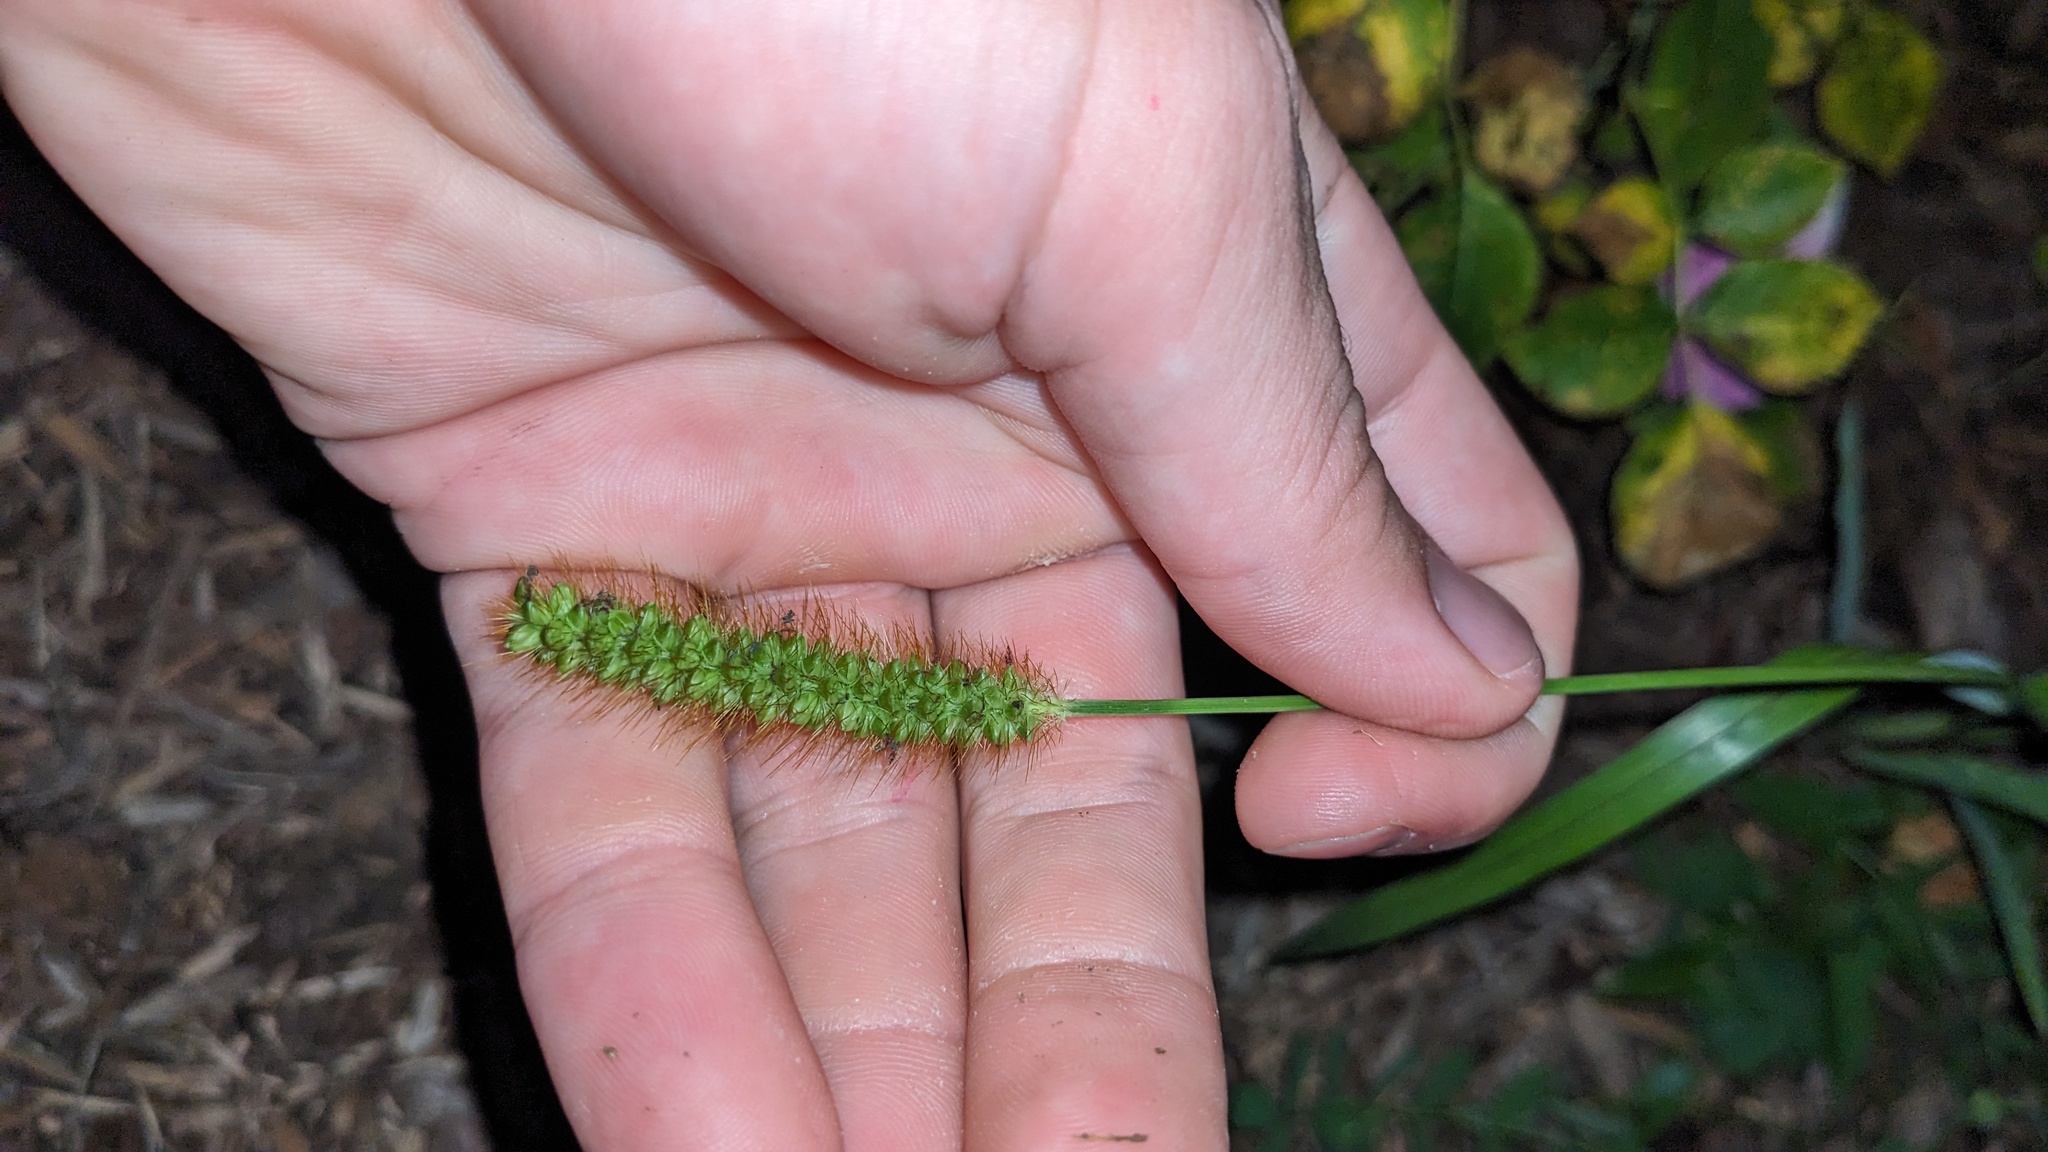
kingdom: Plantae
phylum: Tracheophyta
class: Liliopsida
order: Poales
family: Poaceae
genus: Setaria
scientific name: Setaria pumila
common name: Yellow bristle-grass
